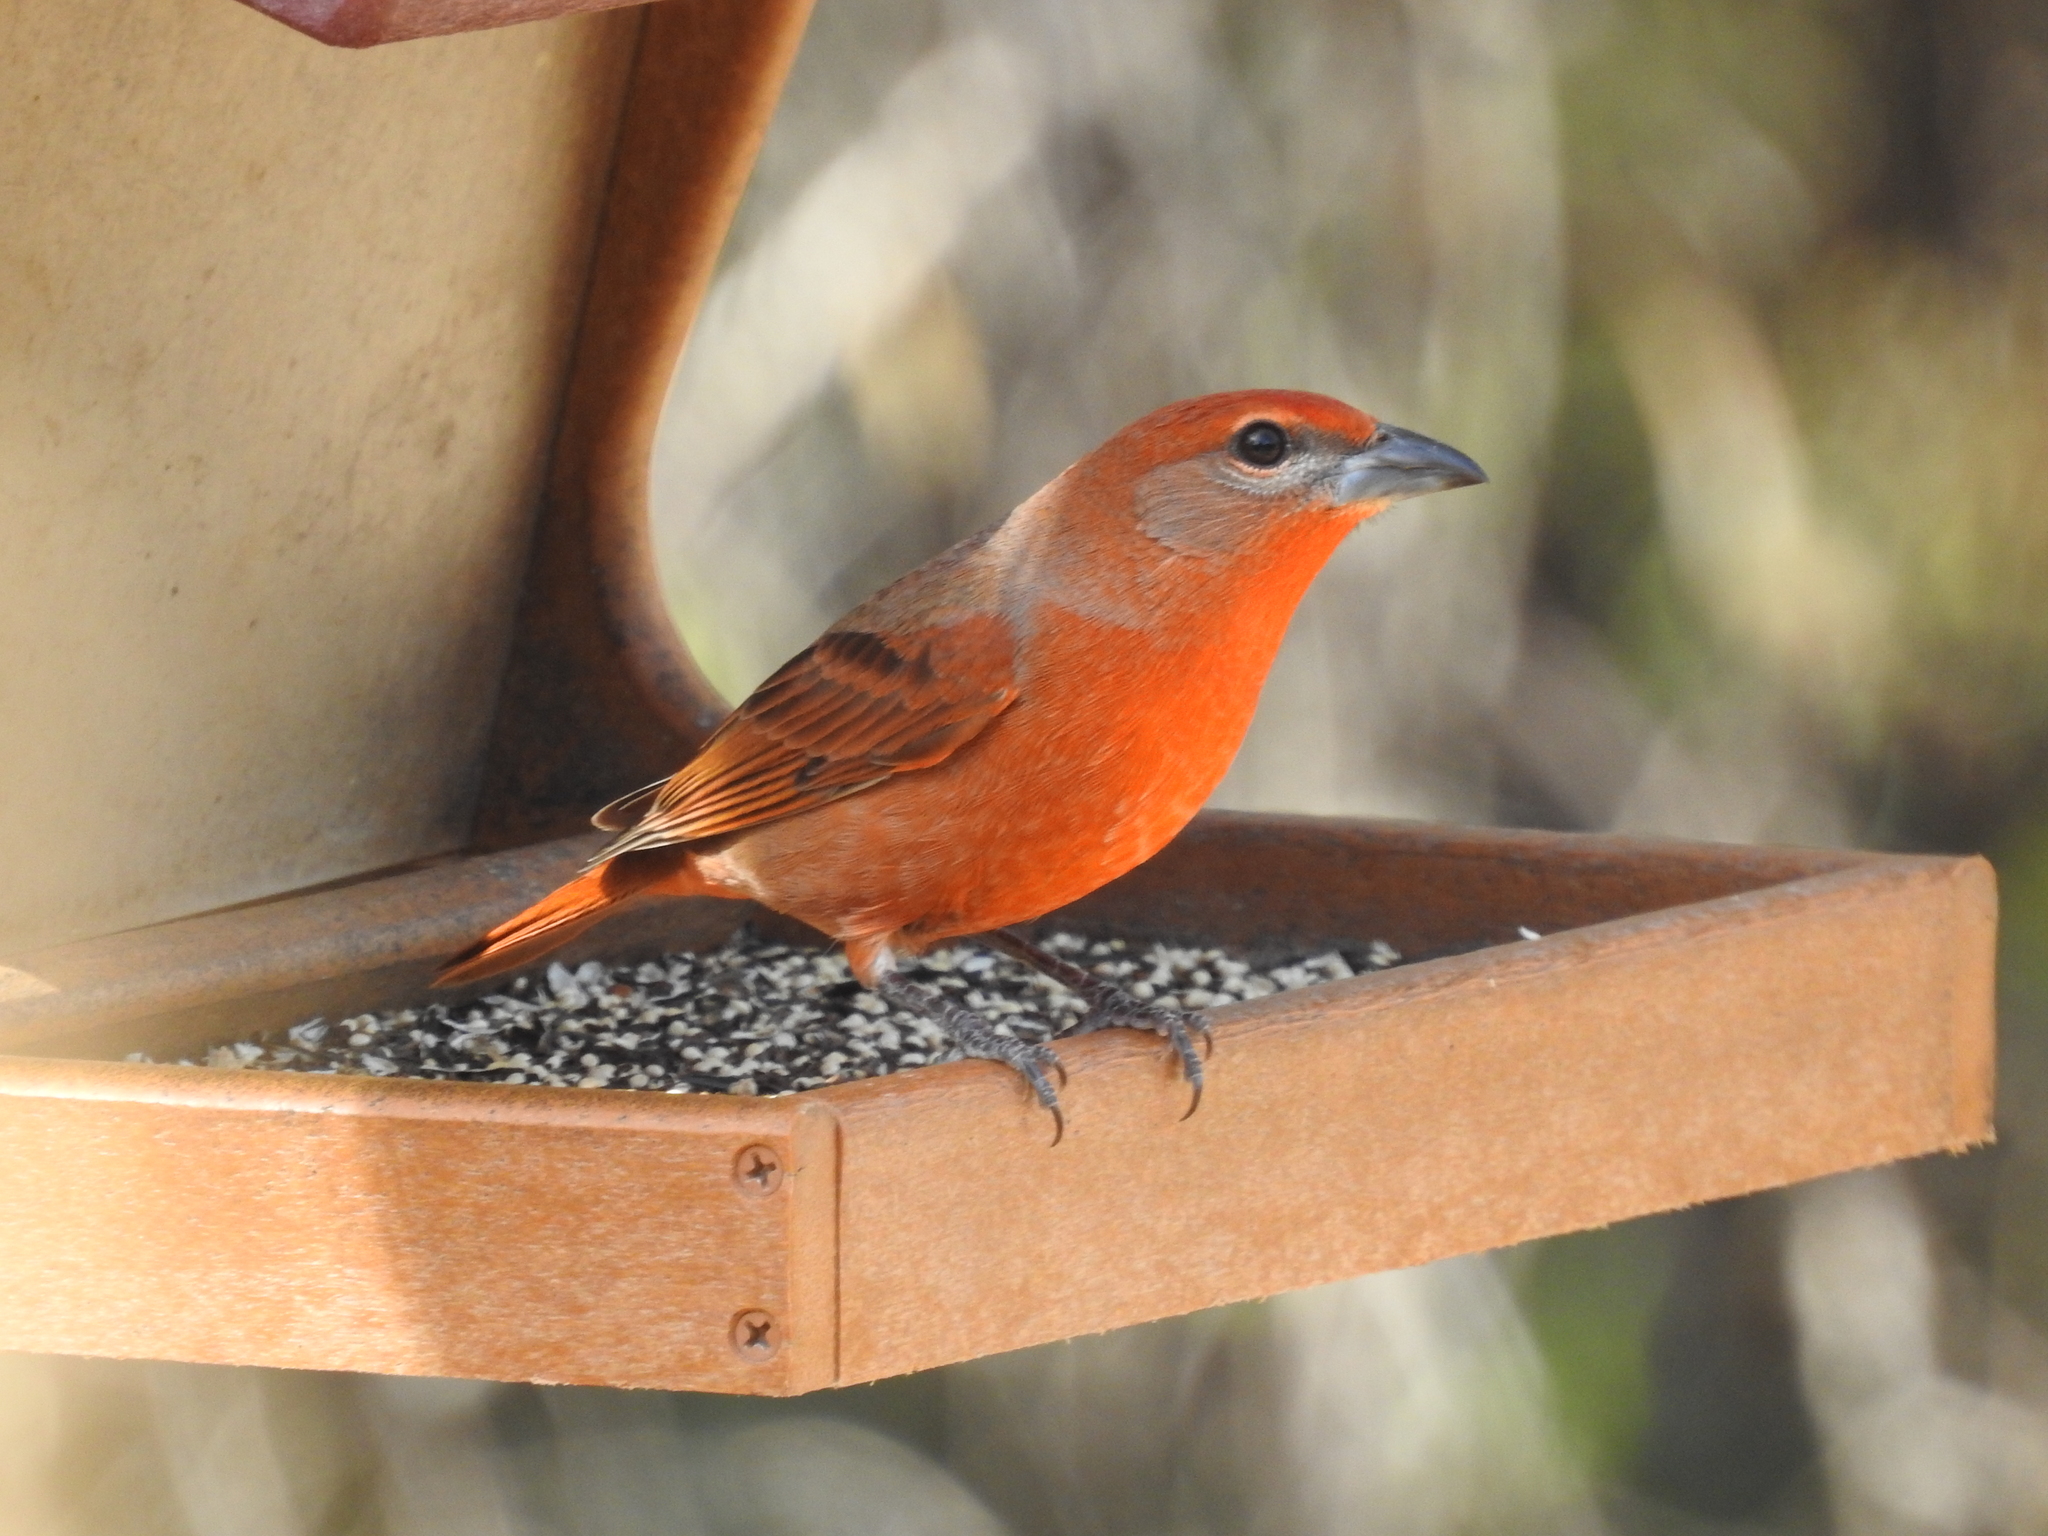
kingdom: Animalia
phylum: Chordata
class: Aves
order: Passeriformes
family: Cardinalidae
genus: Piranga
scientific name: Piranga flava
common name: Red tanager
